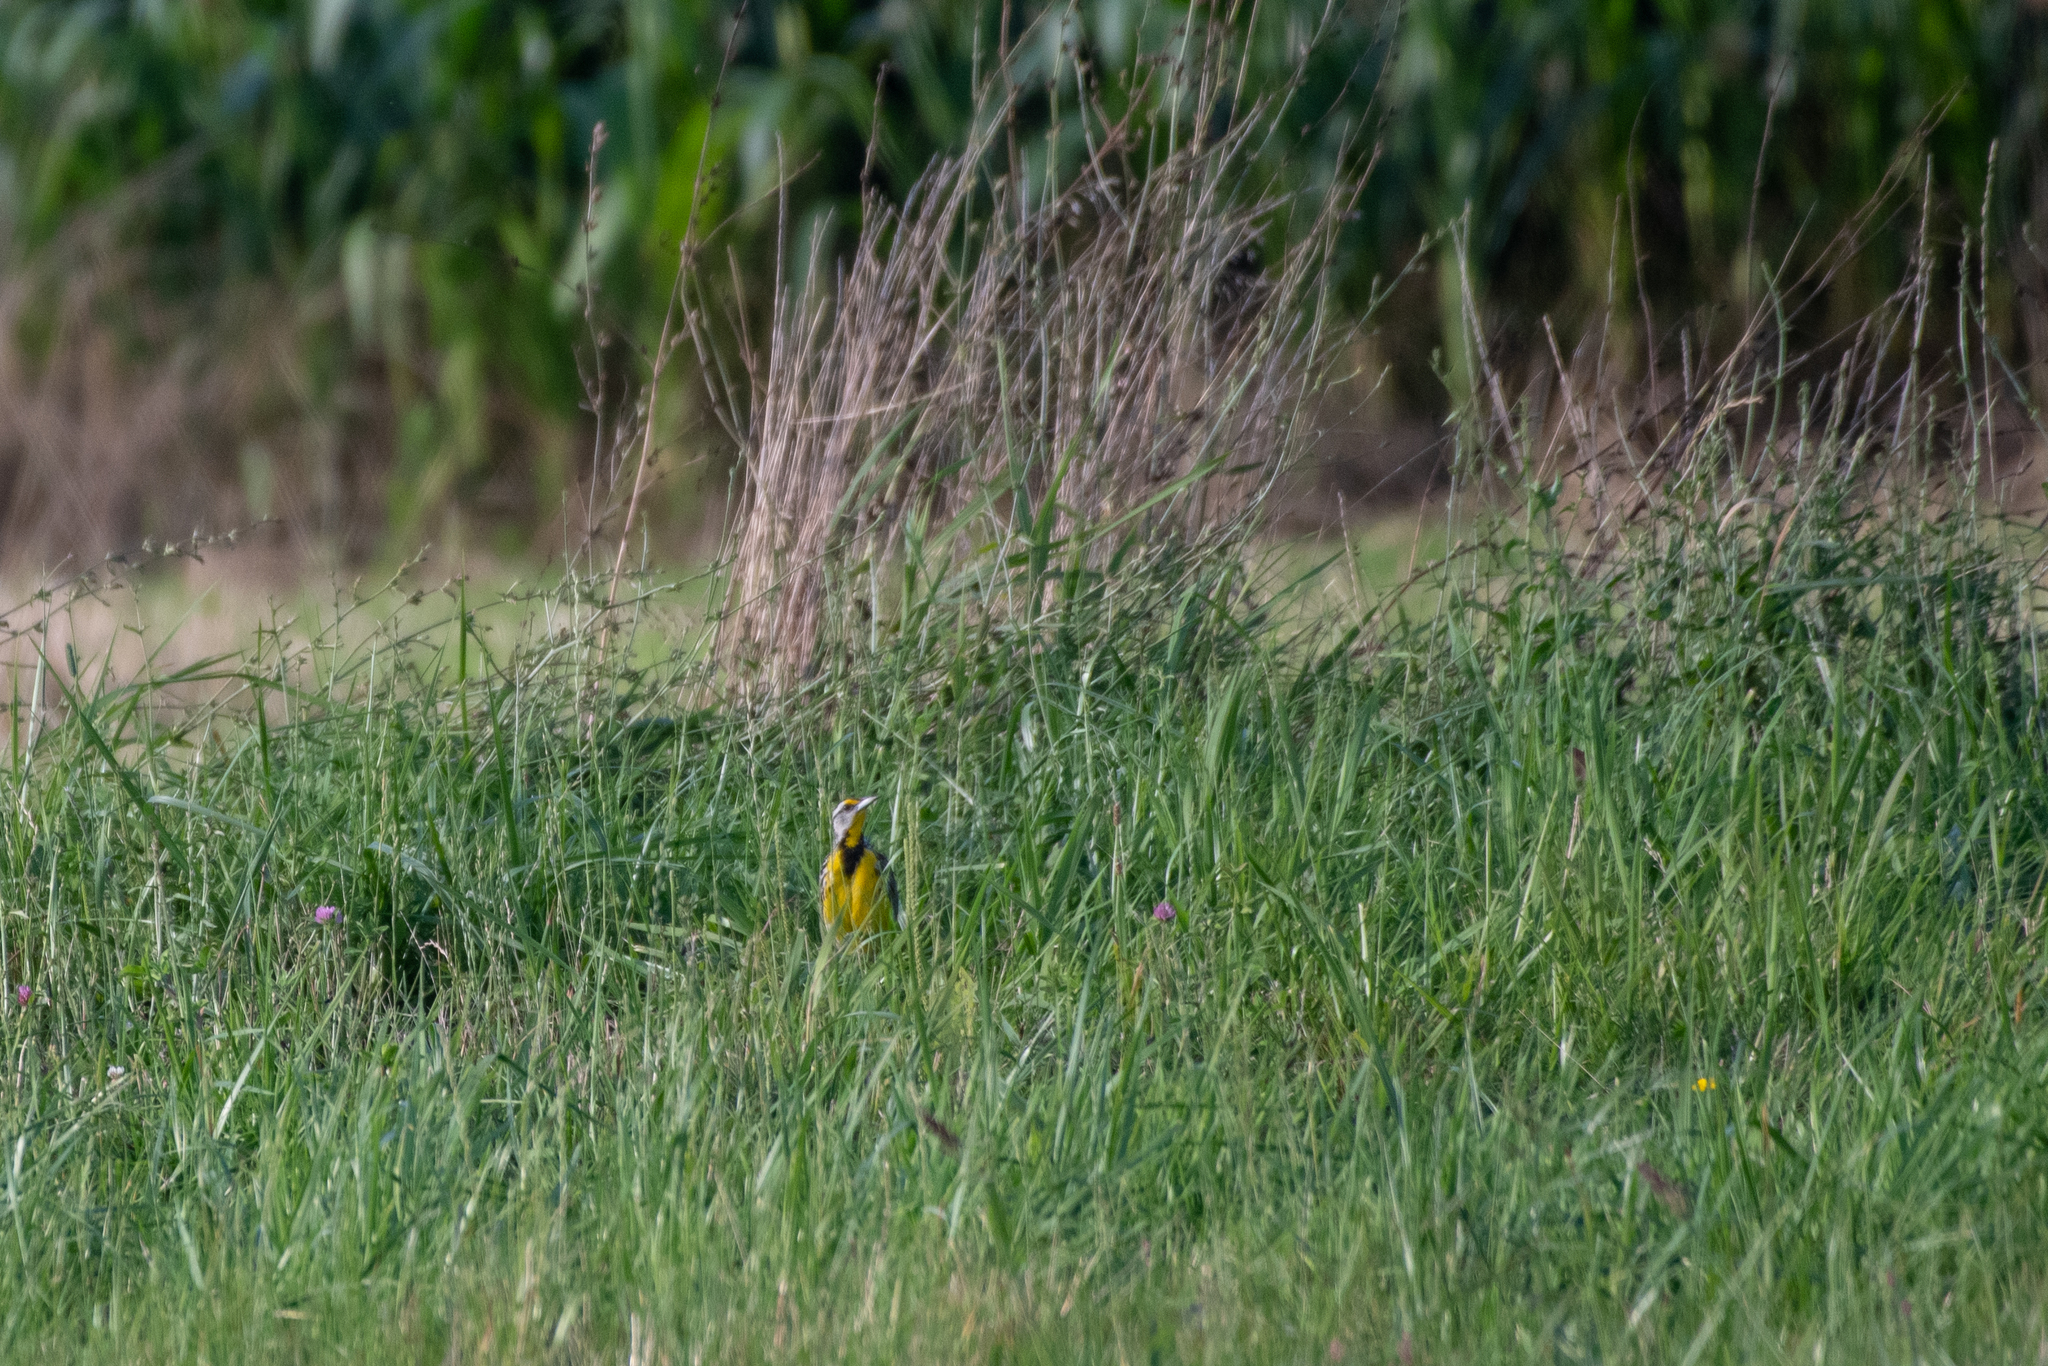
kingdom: Animalia
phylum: Chordata
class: Aves
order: Passeriformes
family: Icteridae
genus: Sturnella
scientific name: Sturnella magna
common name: Eastern meadowlark
